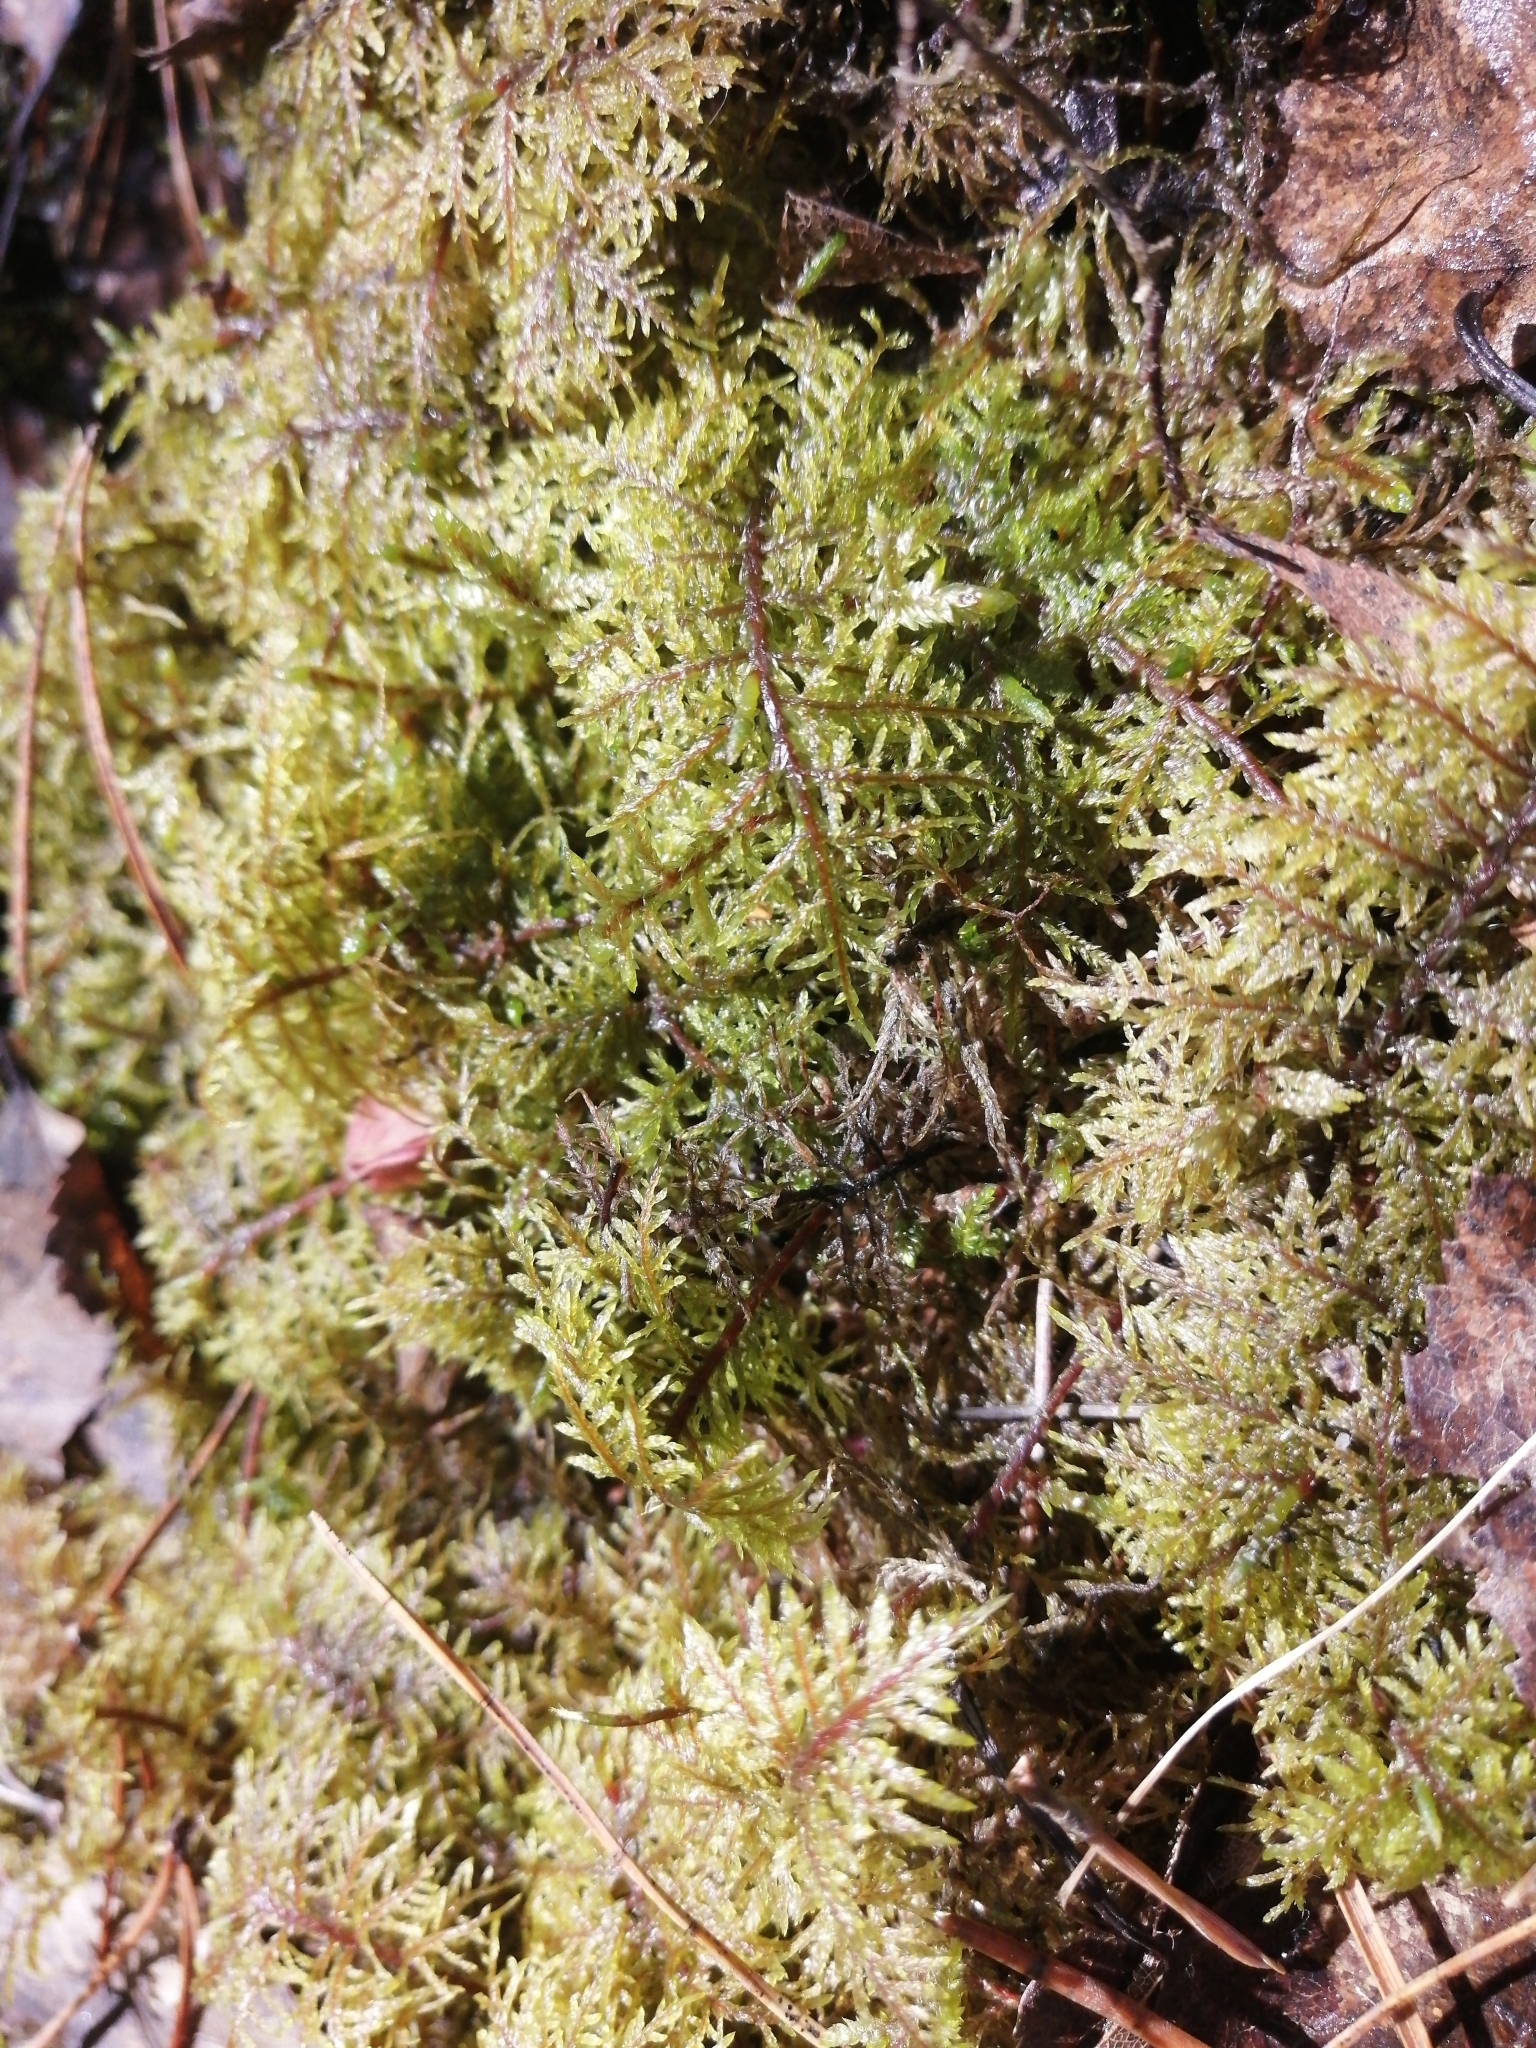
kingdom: Plantae
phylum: Bryophyta
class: Bryopsida
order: Hypnales
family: Hylocomiaceae
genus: Hylocomium
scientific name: Hylocomium splendens
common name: Stairstep moss
